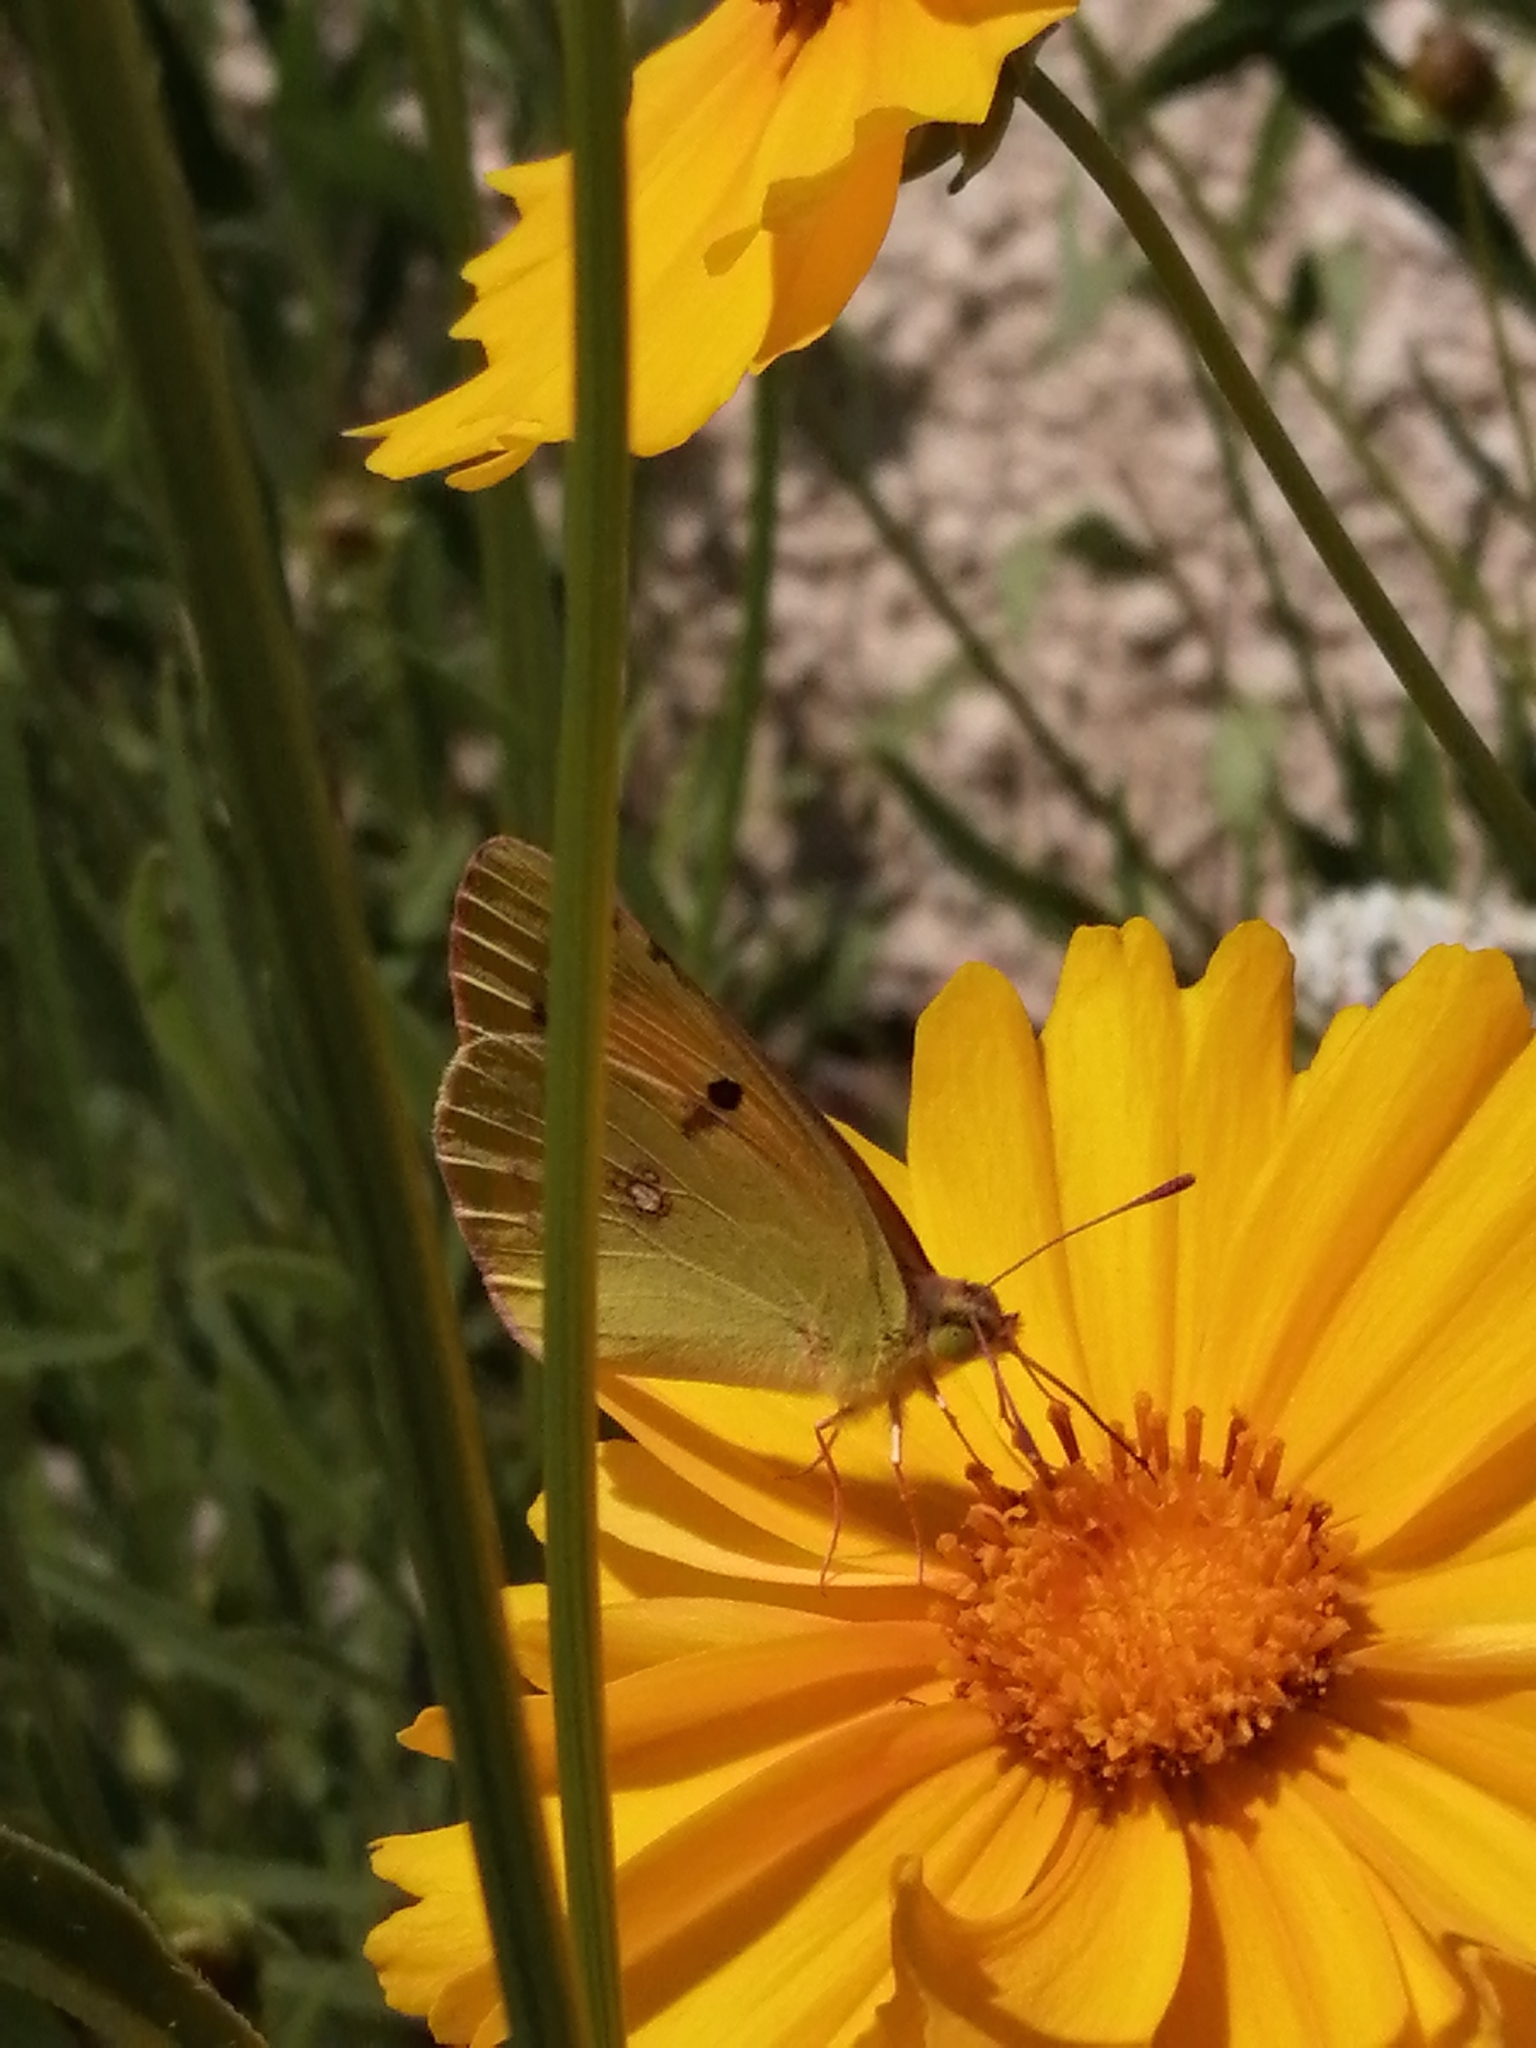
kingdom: Animalia
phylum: Arthropoda
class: Insecta
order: Lepidoptera
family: Pieridae
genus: Colias
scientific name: Colias croceus
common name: Clouded yellow
